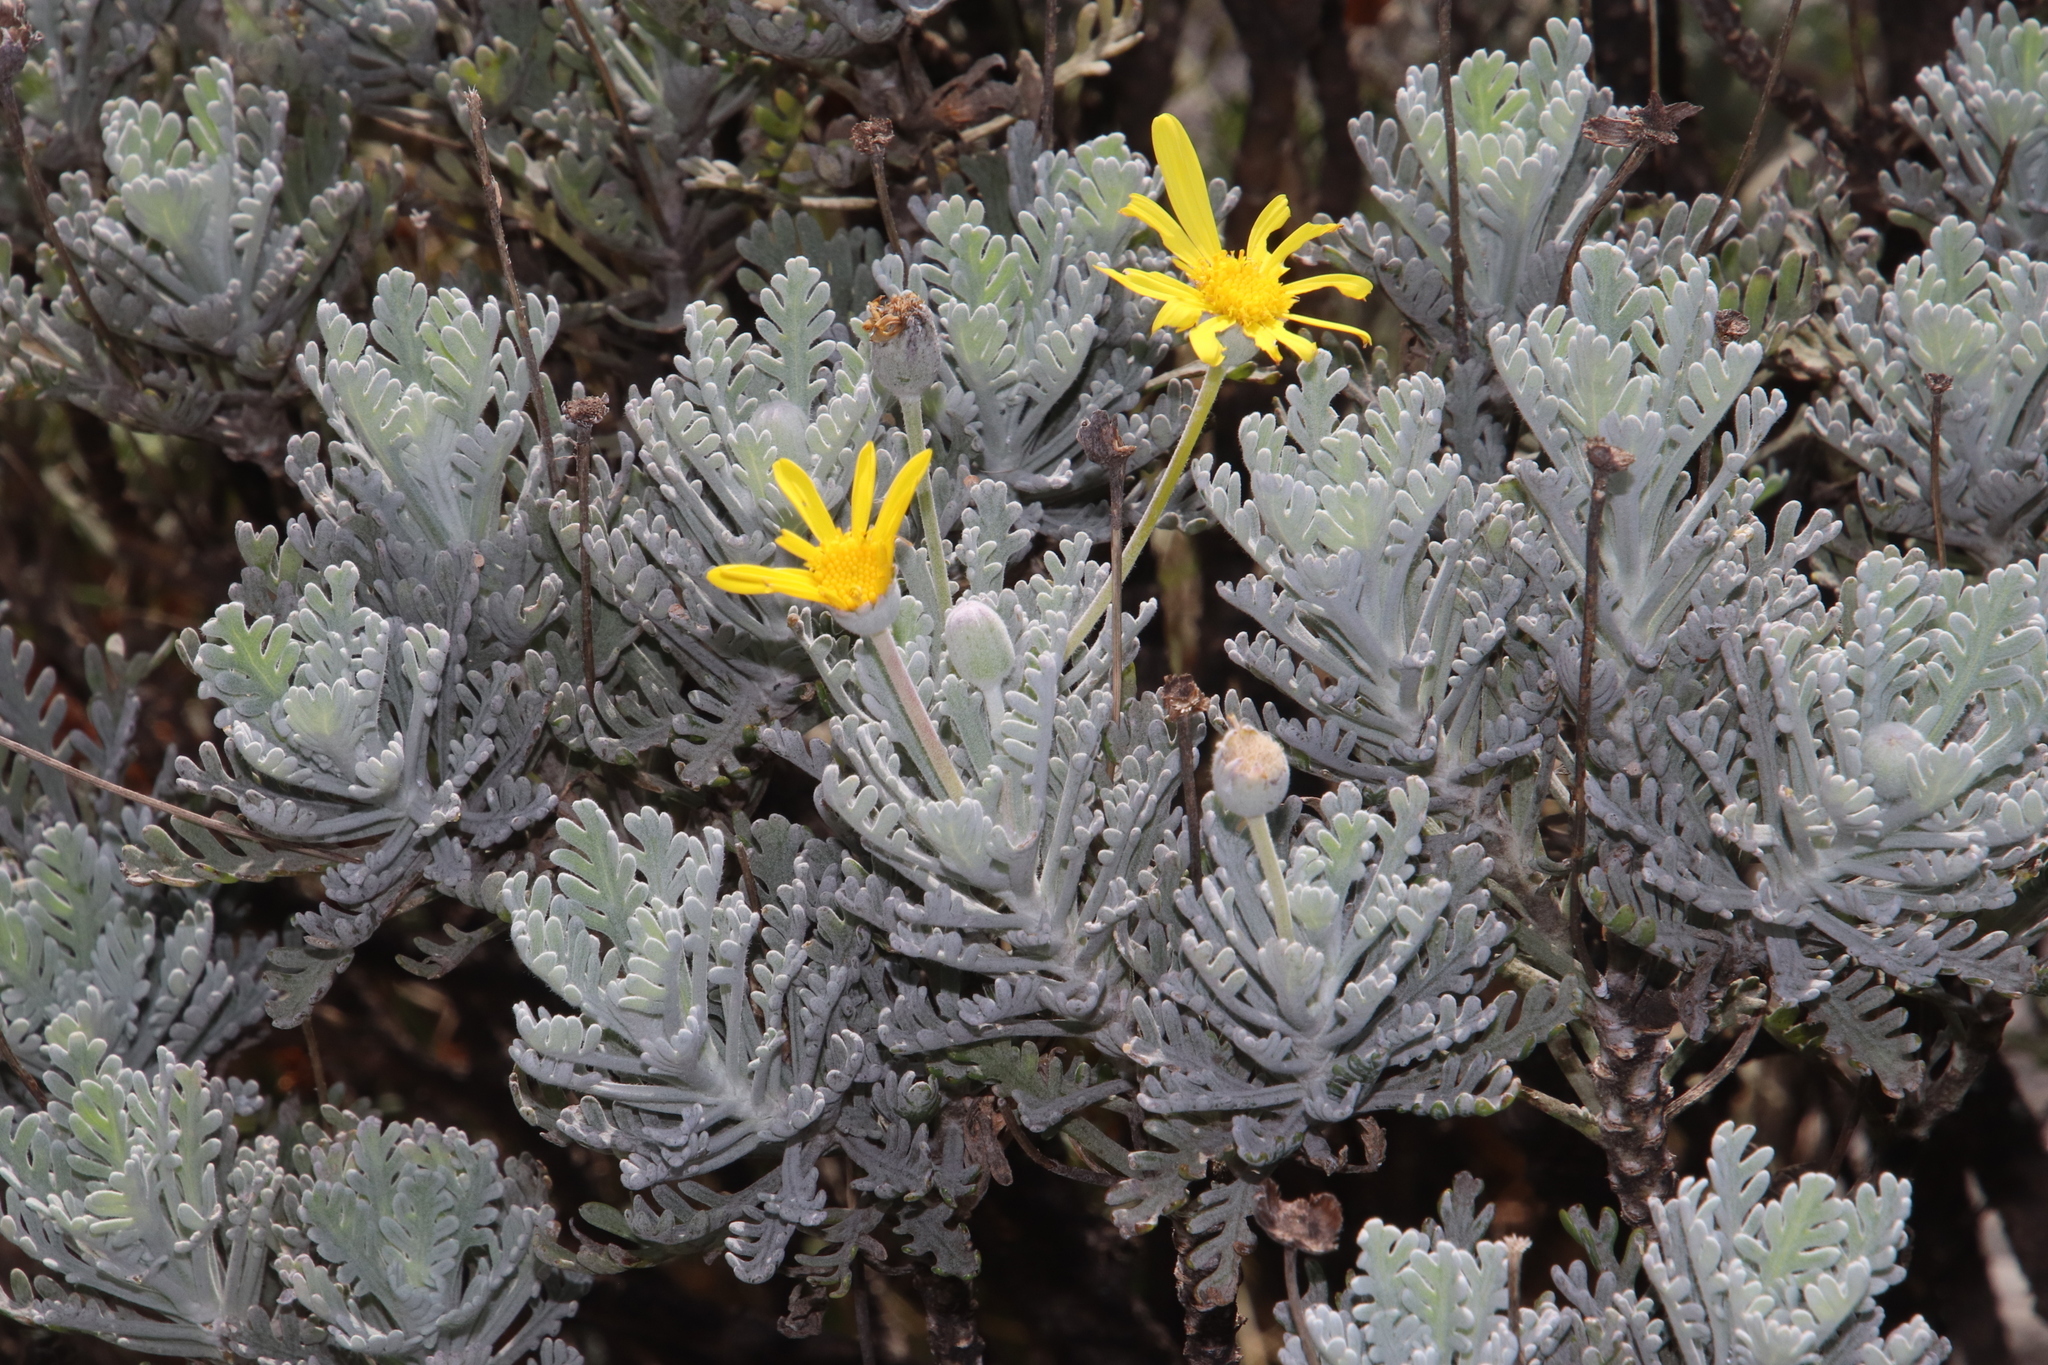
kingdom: Plantae
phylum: Tracheophyta
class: Magnoliopsida
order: Asterales
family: Asteraceae
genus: Euryops
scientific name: Euryops pectinatus
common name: Gray-leaf euryops
